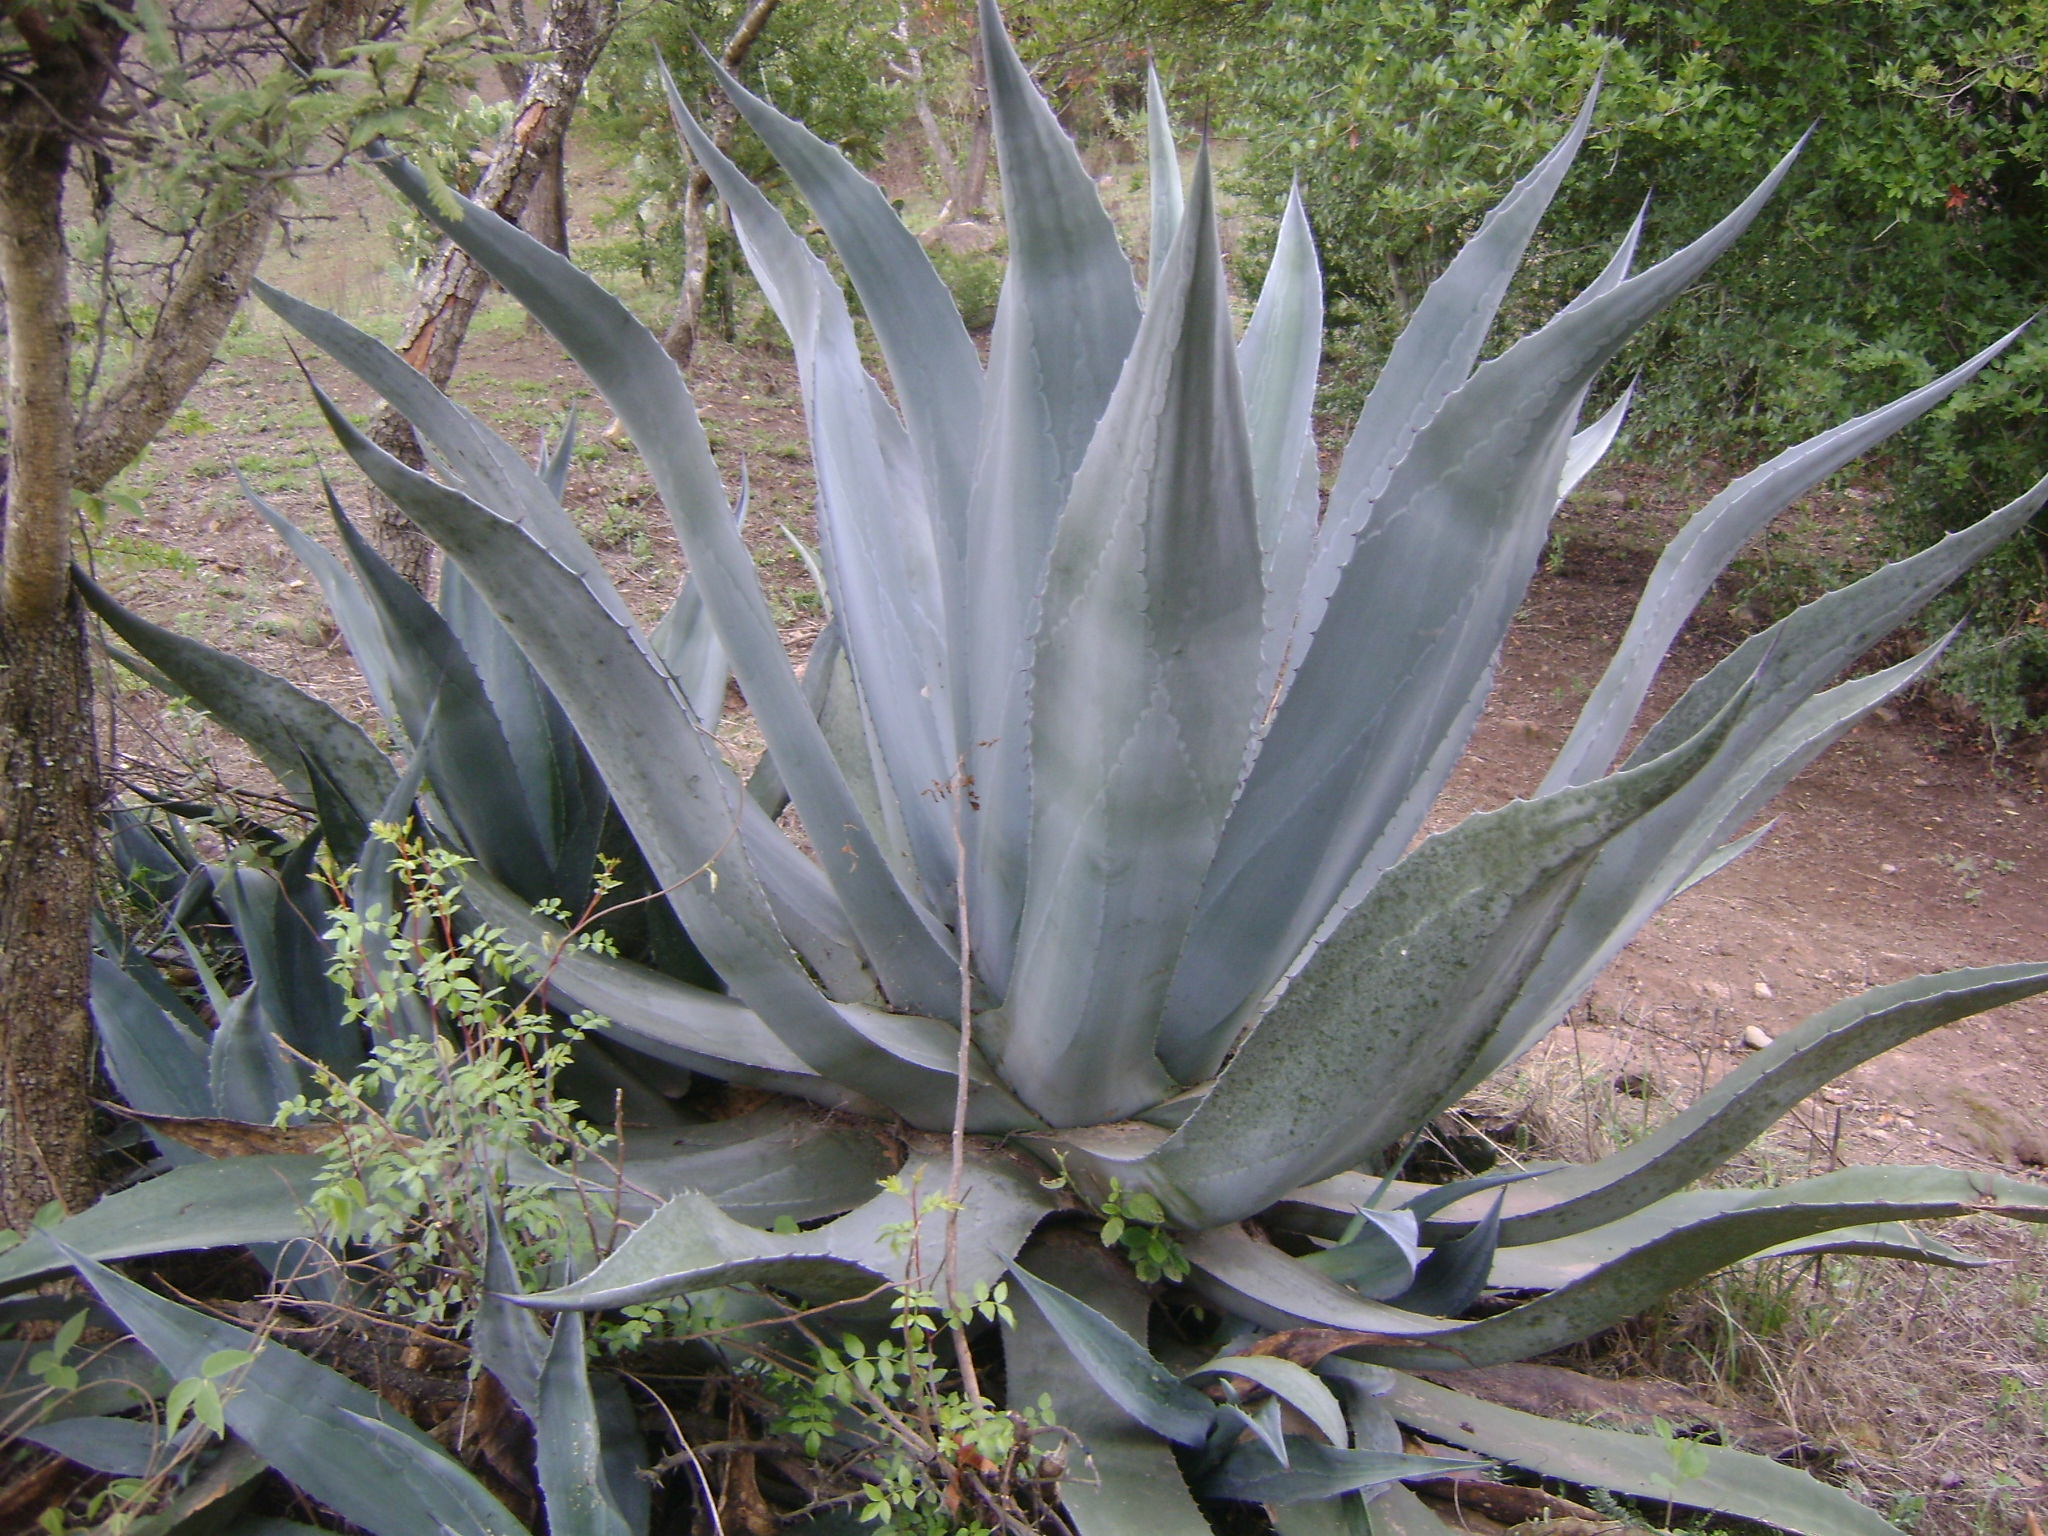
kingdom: Plantae
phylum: Tracheophyta
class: Liliopsida
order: Asparagales
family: Asparagaceae
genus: Agave
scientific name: Agave americana
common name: Centuryplant
